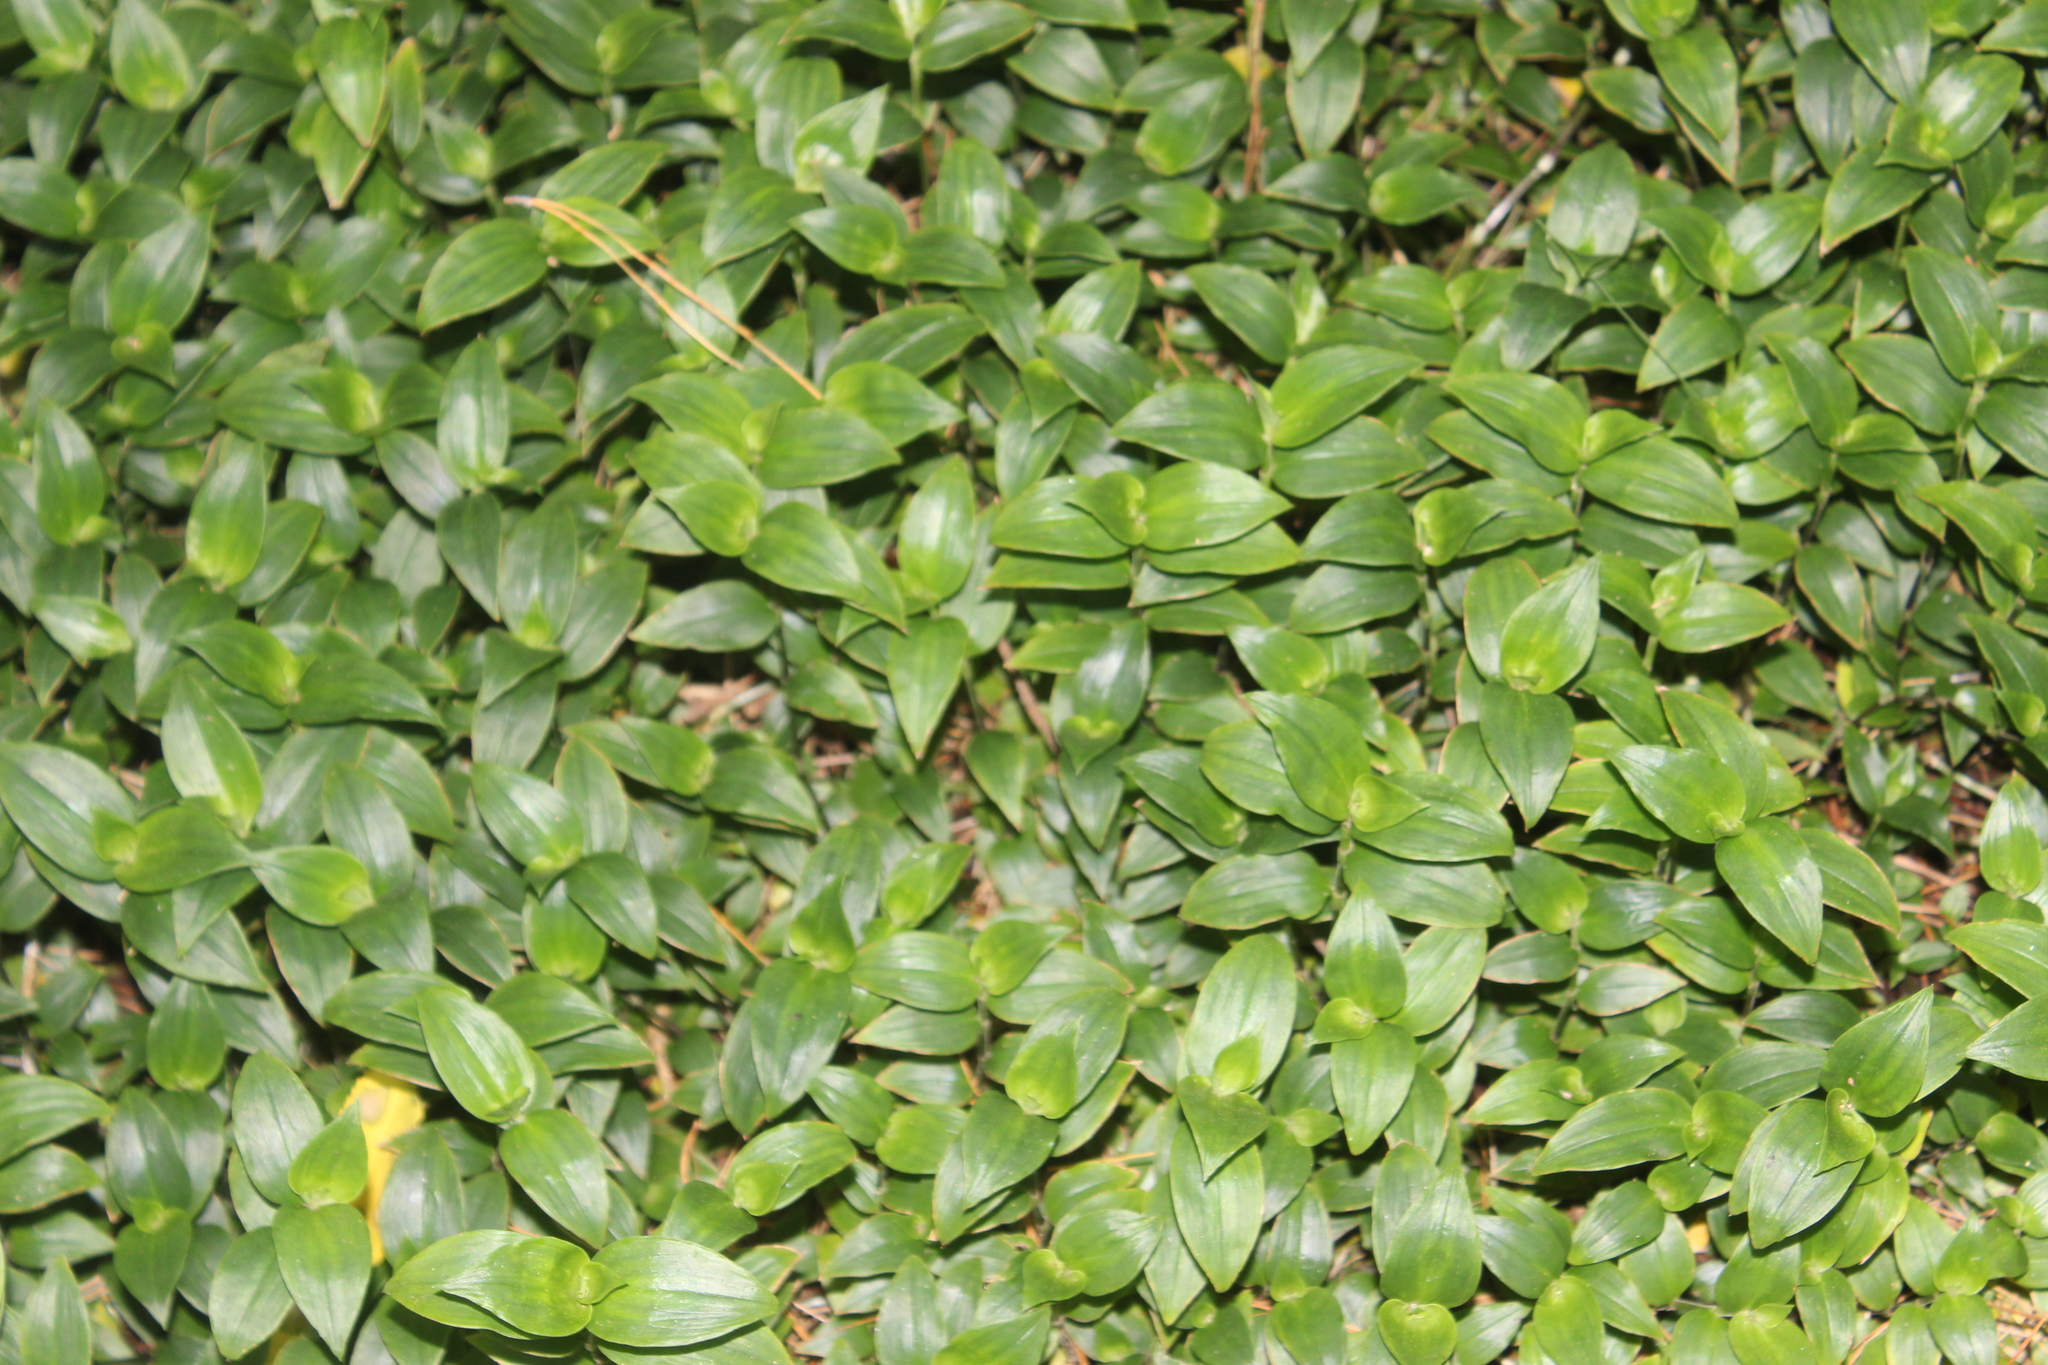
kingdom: Plantae
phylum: Tracheophyta
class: Liliopsida
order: Commelinales
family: Commelinaceae
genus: Tradescantia
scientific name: Tradescantia fluminensis
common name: Wandering-jew
